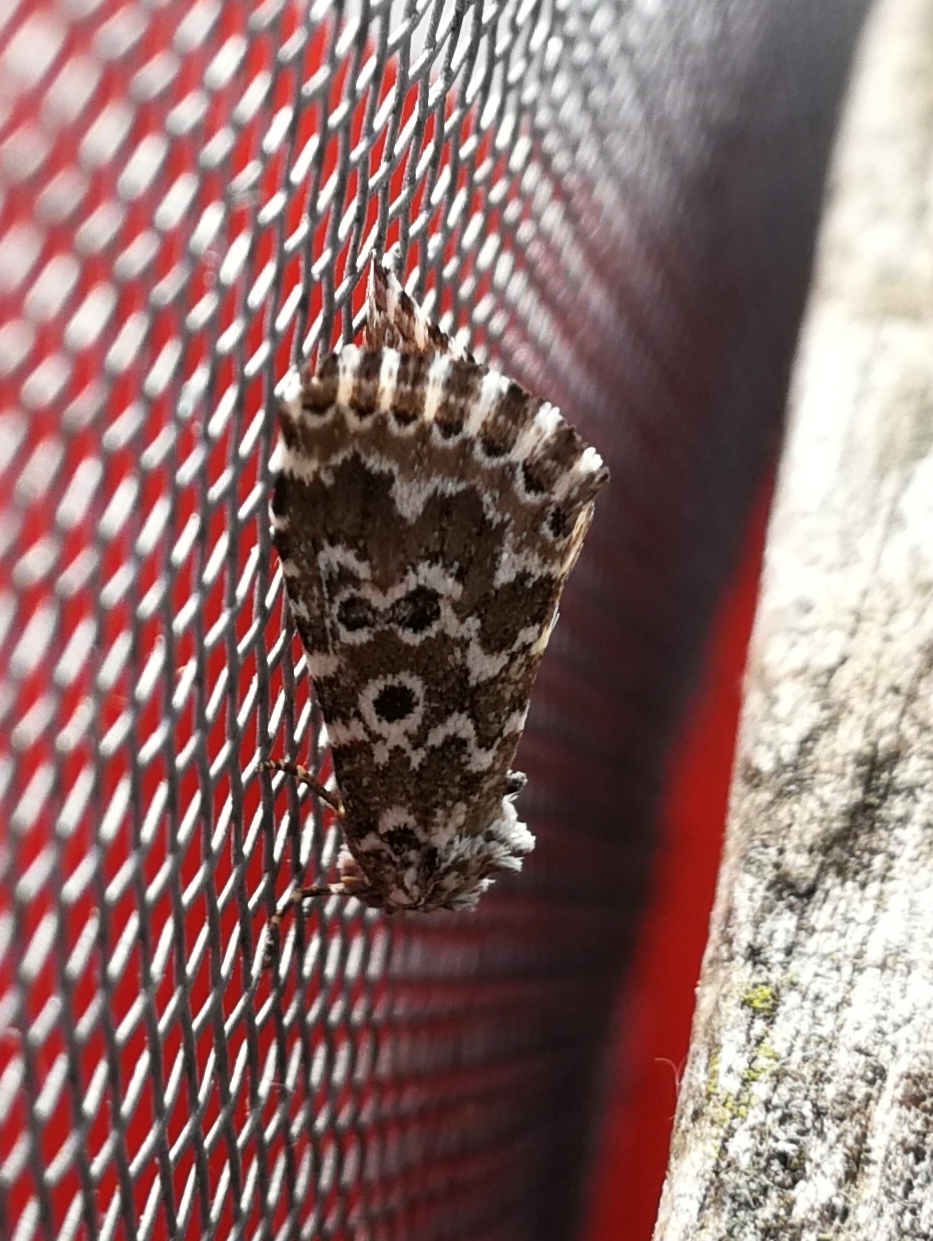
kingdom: Animalia
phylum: Arthropoda
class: Insecta
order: Lepidoptera
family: Noctuidae
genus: Alvaradoia
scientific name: Alvaradoia disjecta
